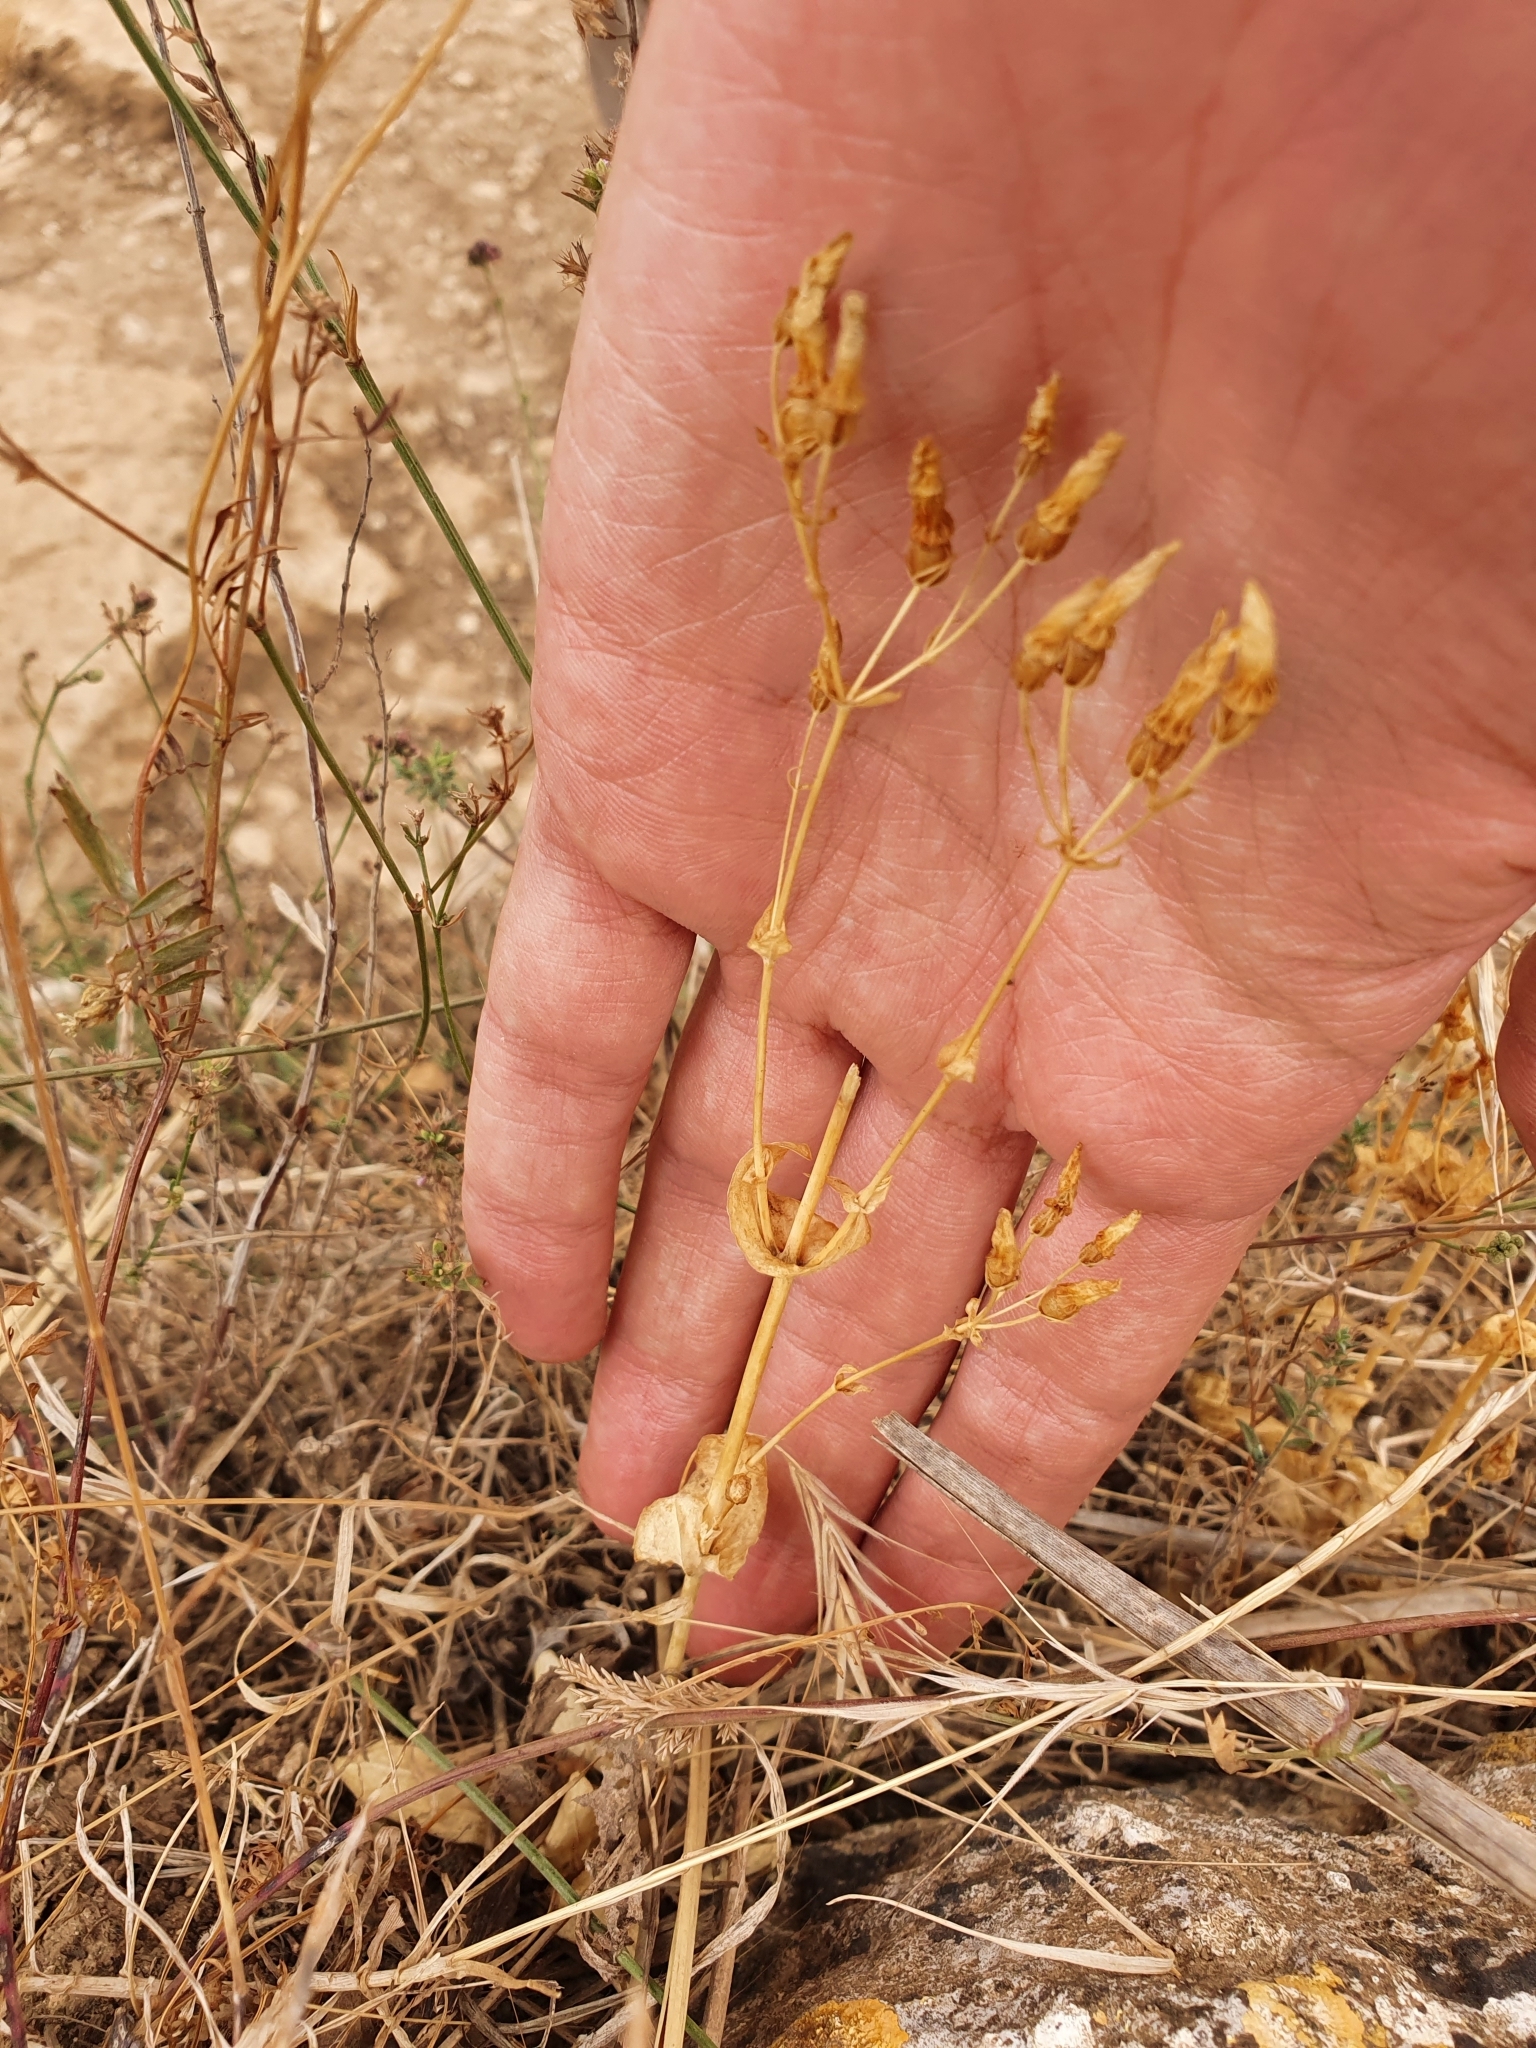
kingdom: Plantae
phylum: Tracheophyta
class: Magnoliopsida
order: Gentianales
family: Gentianaceae
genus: Blackstonia
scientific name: Blackstonia grandiflora
